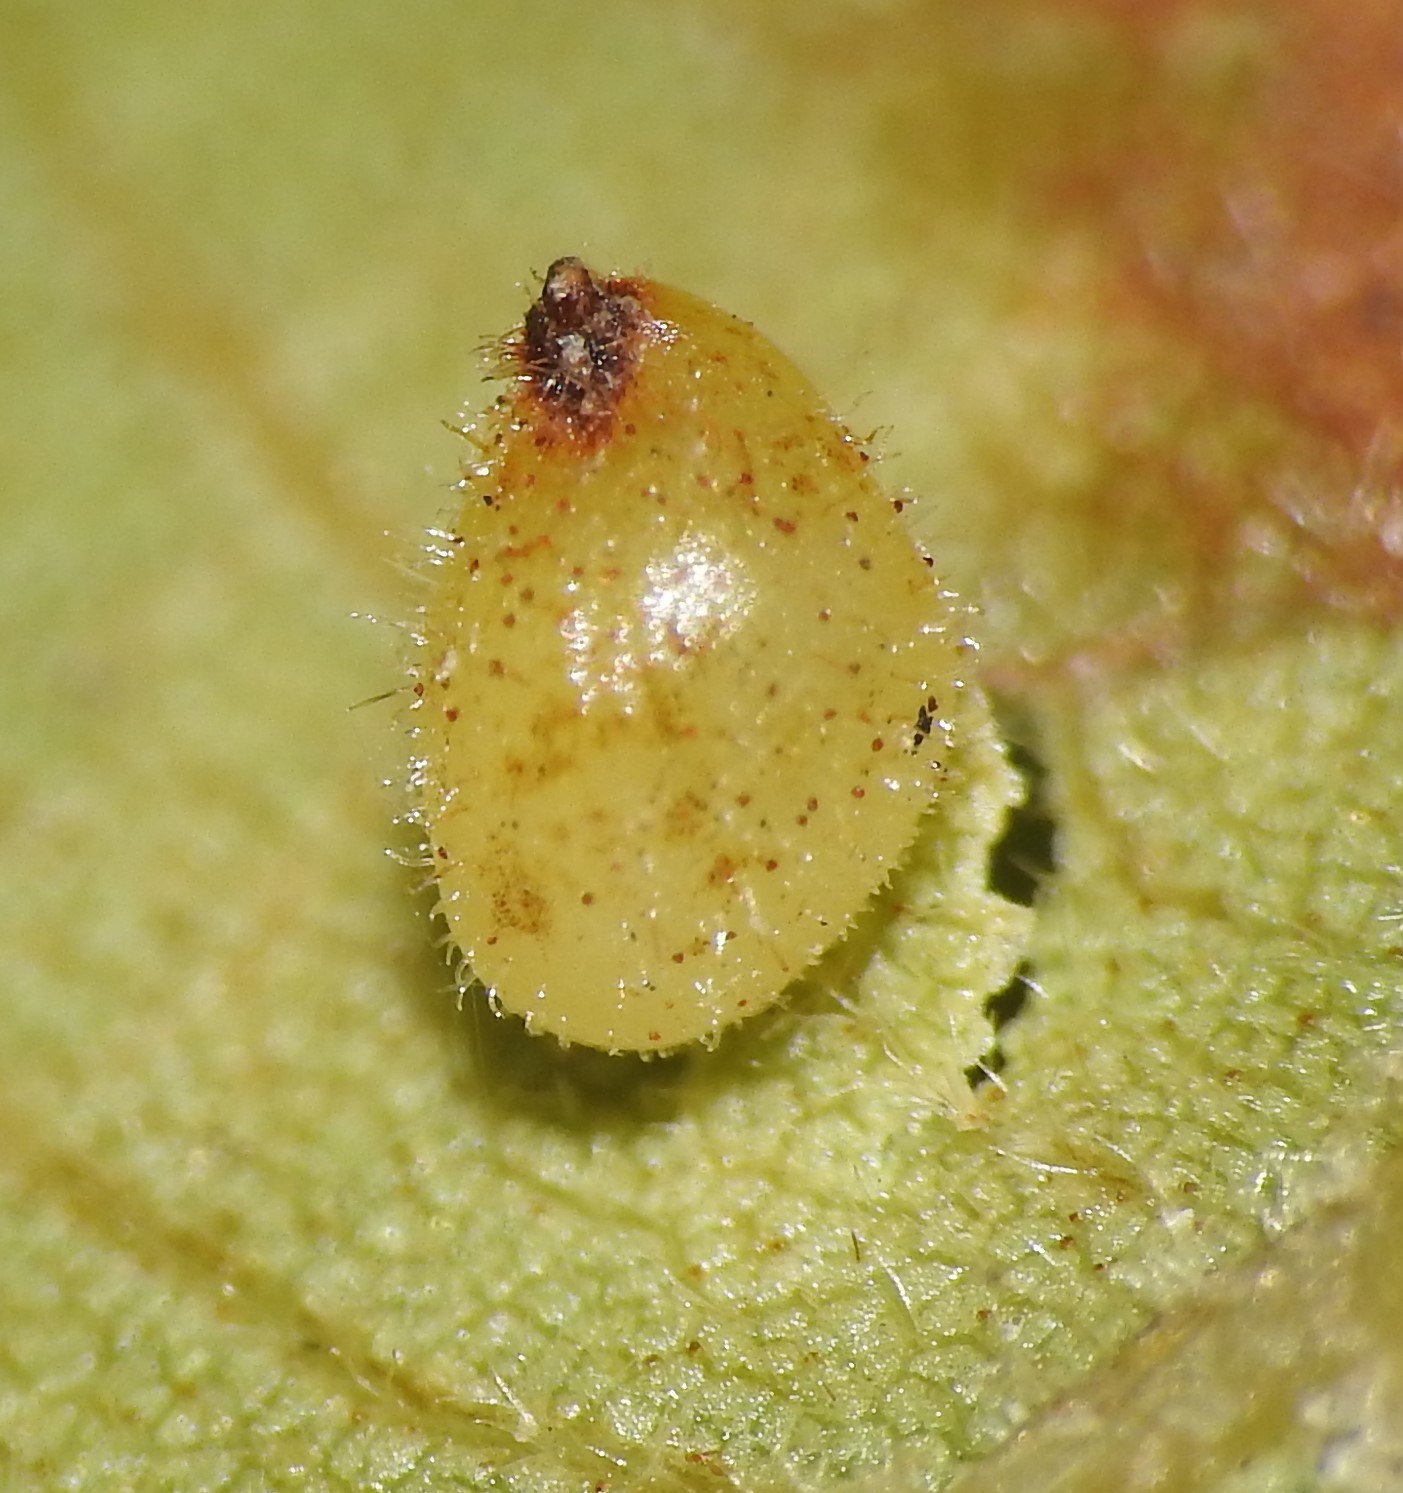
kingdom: Animalia
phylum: Arthropoda
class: Insecta
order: Diptera
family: Cecidomyiidae
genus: Caryomyia
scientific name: Caryomyia eumaris
